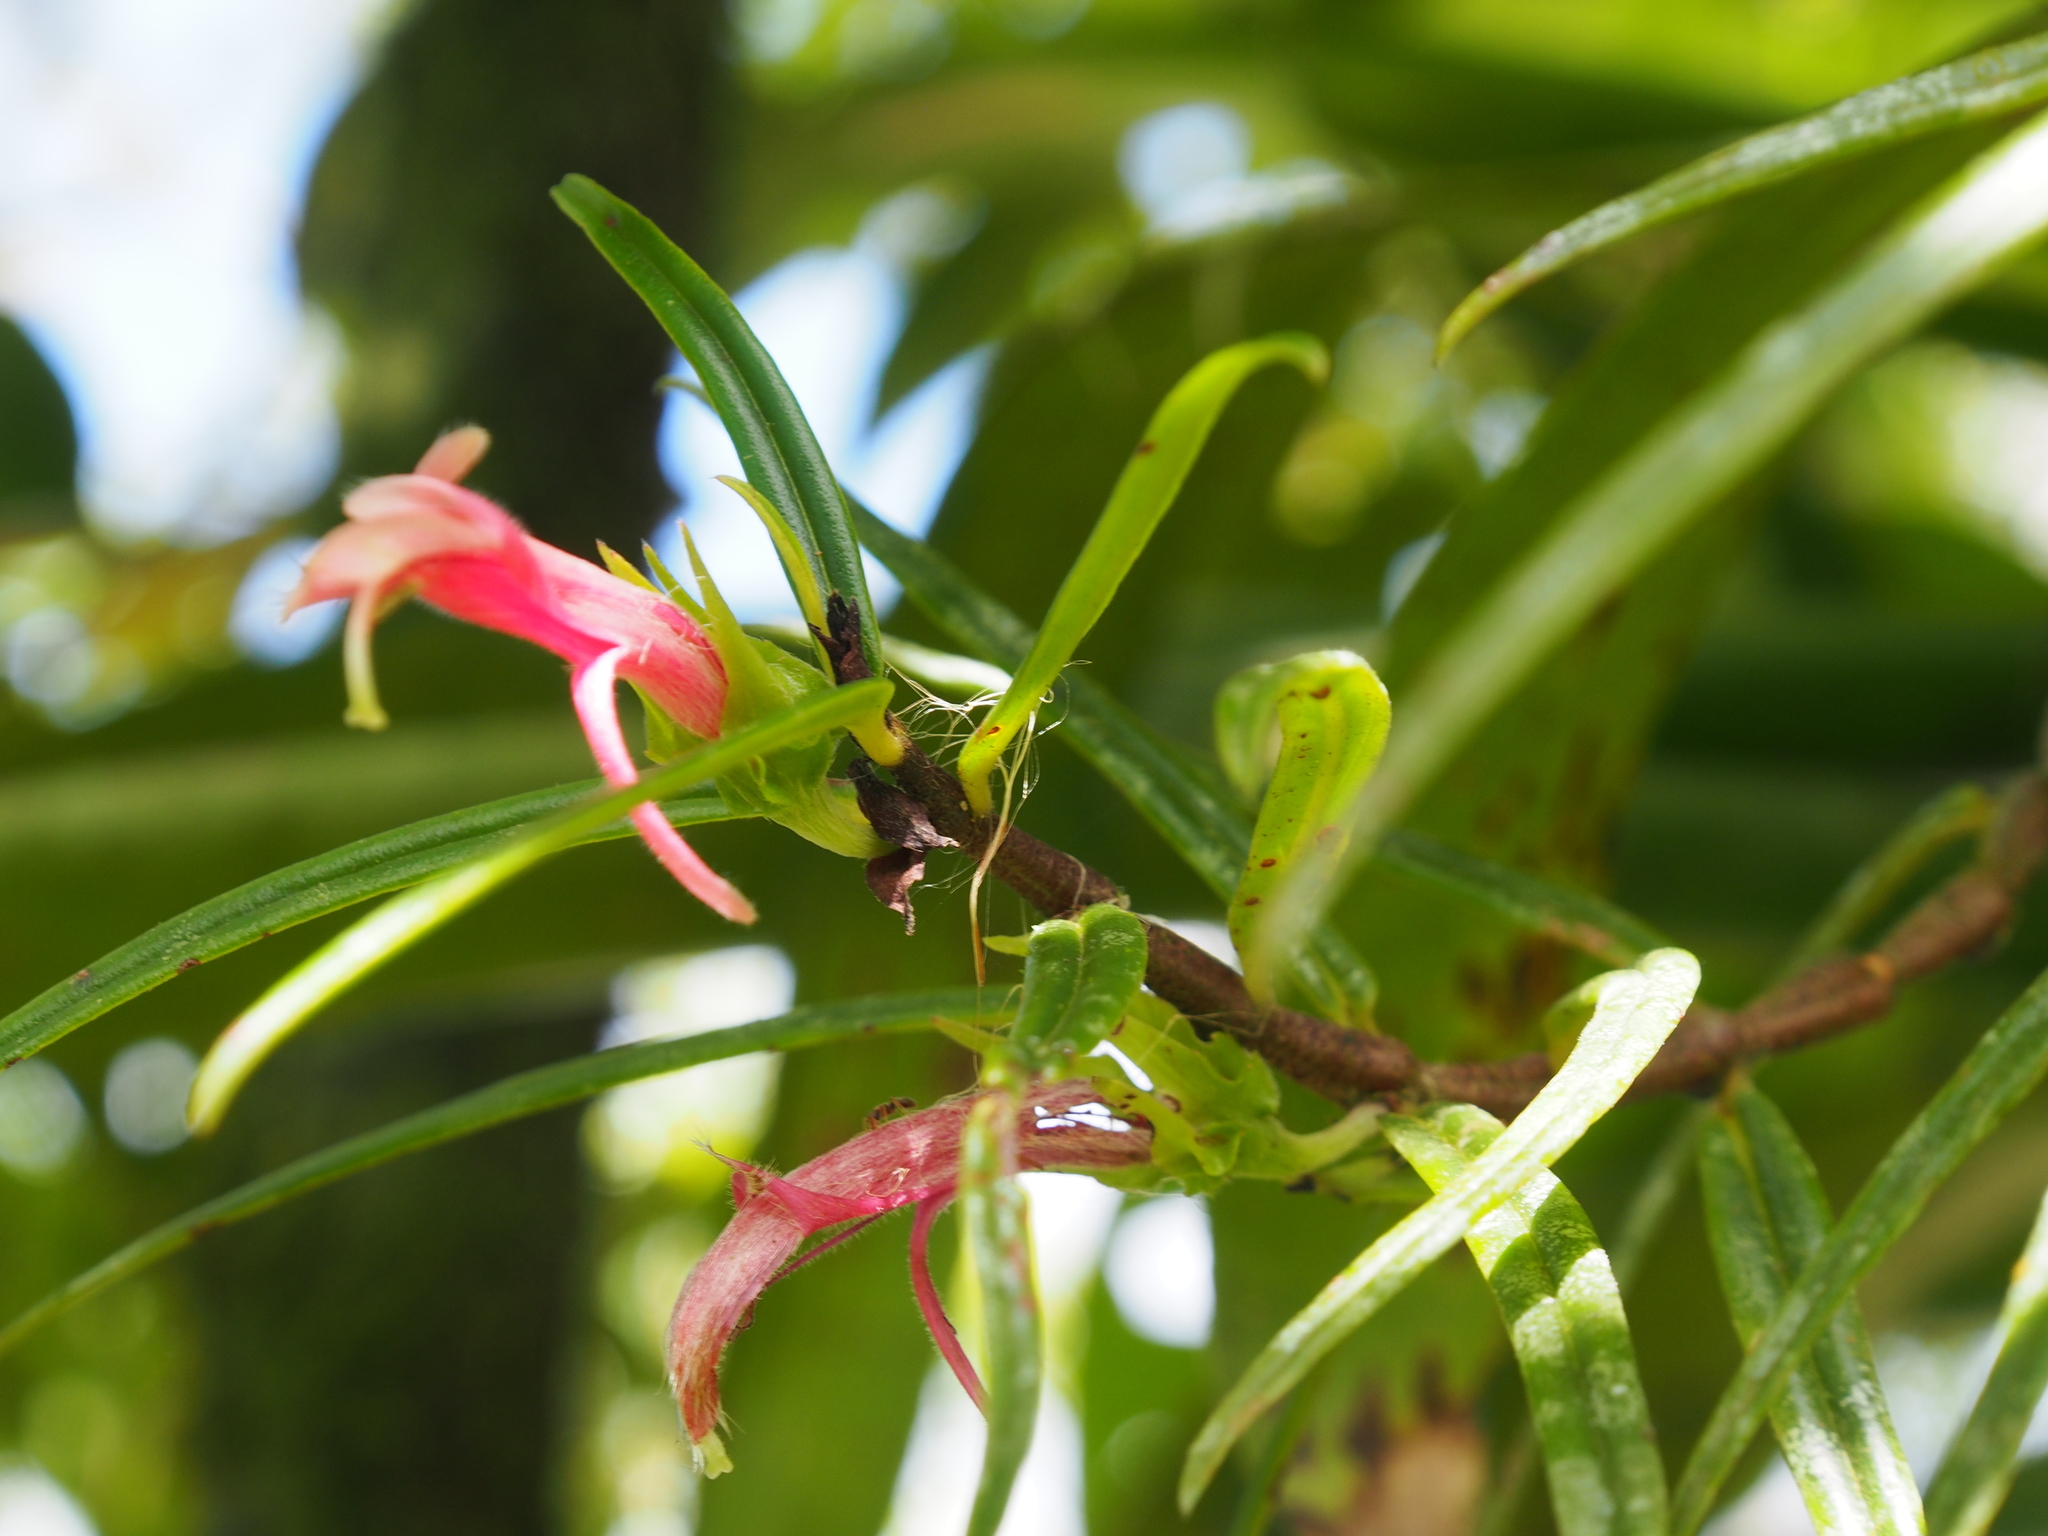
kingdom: Plantae
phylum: Tracheophyta
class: Magnoliopsida
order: Lamiales
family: Gesneriaceae
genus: Columnea
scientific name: Columnea linearis
